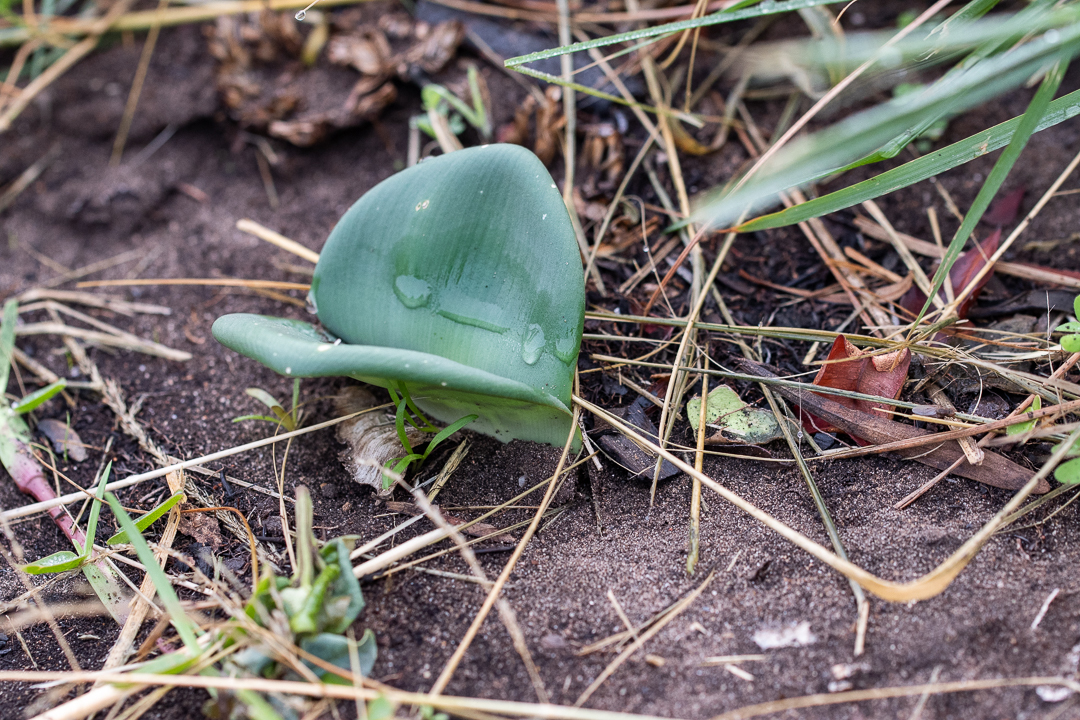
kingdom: Plantae
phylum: Tracheophyta
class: Liliopsida
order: Asparagales
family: Amaryllidaceae
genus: Haemanthus
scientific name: Haemanthus coccineus
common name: Cape-tulip
